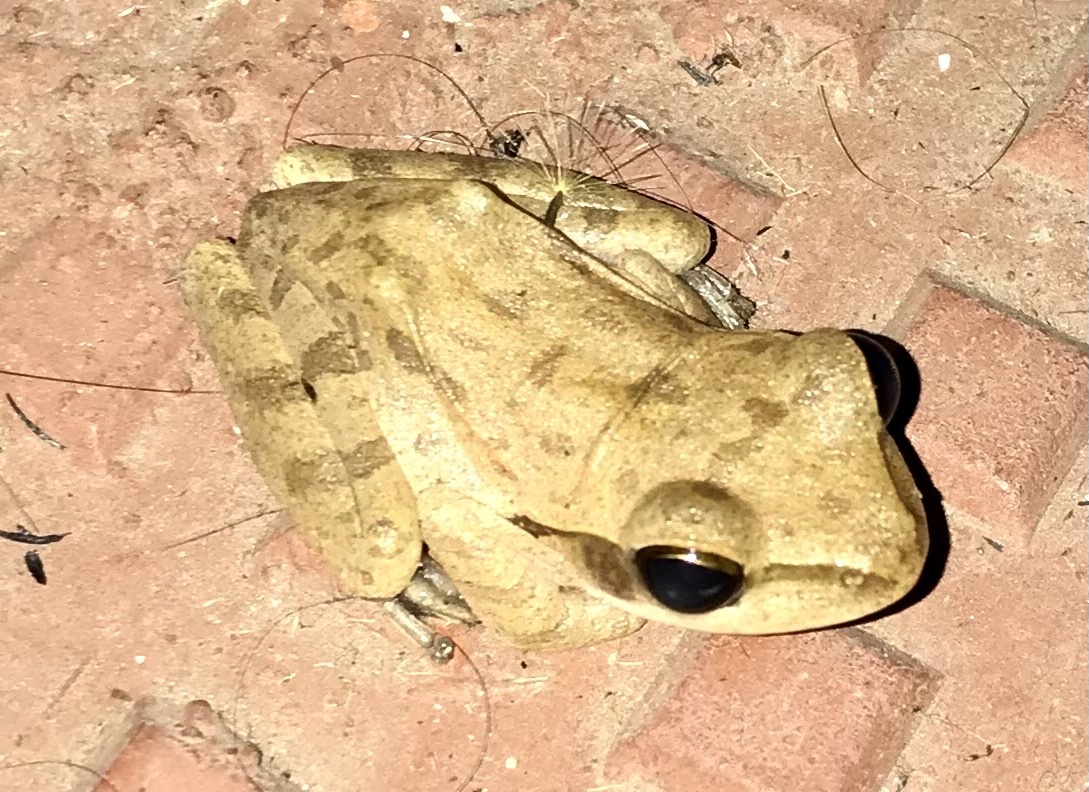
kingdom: Animalia
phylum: Chordata
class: Amphibia
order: Anura
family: Rhacophoridae
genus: Polypedates
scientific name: Polypedates maculatus
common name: Himalayan tree frog
